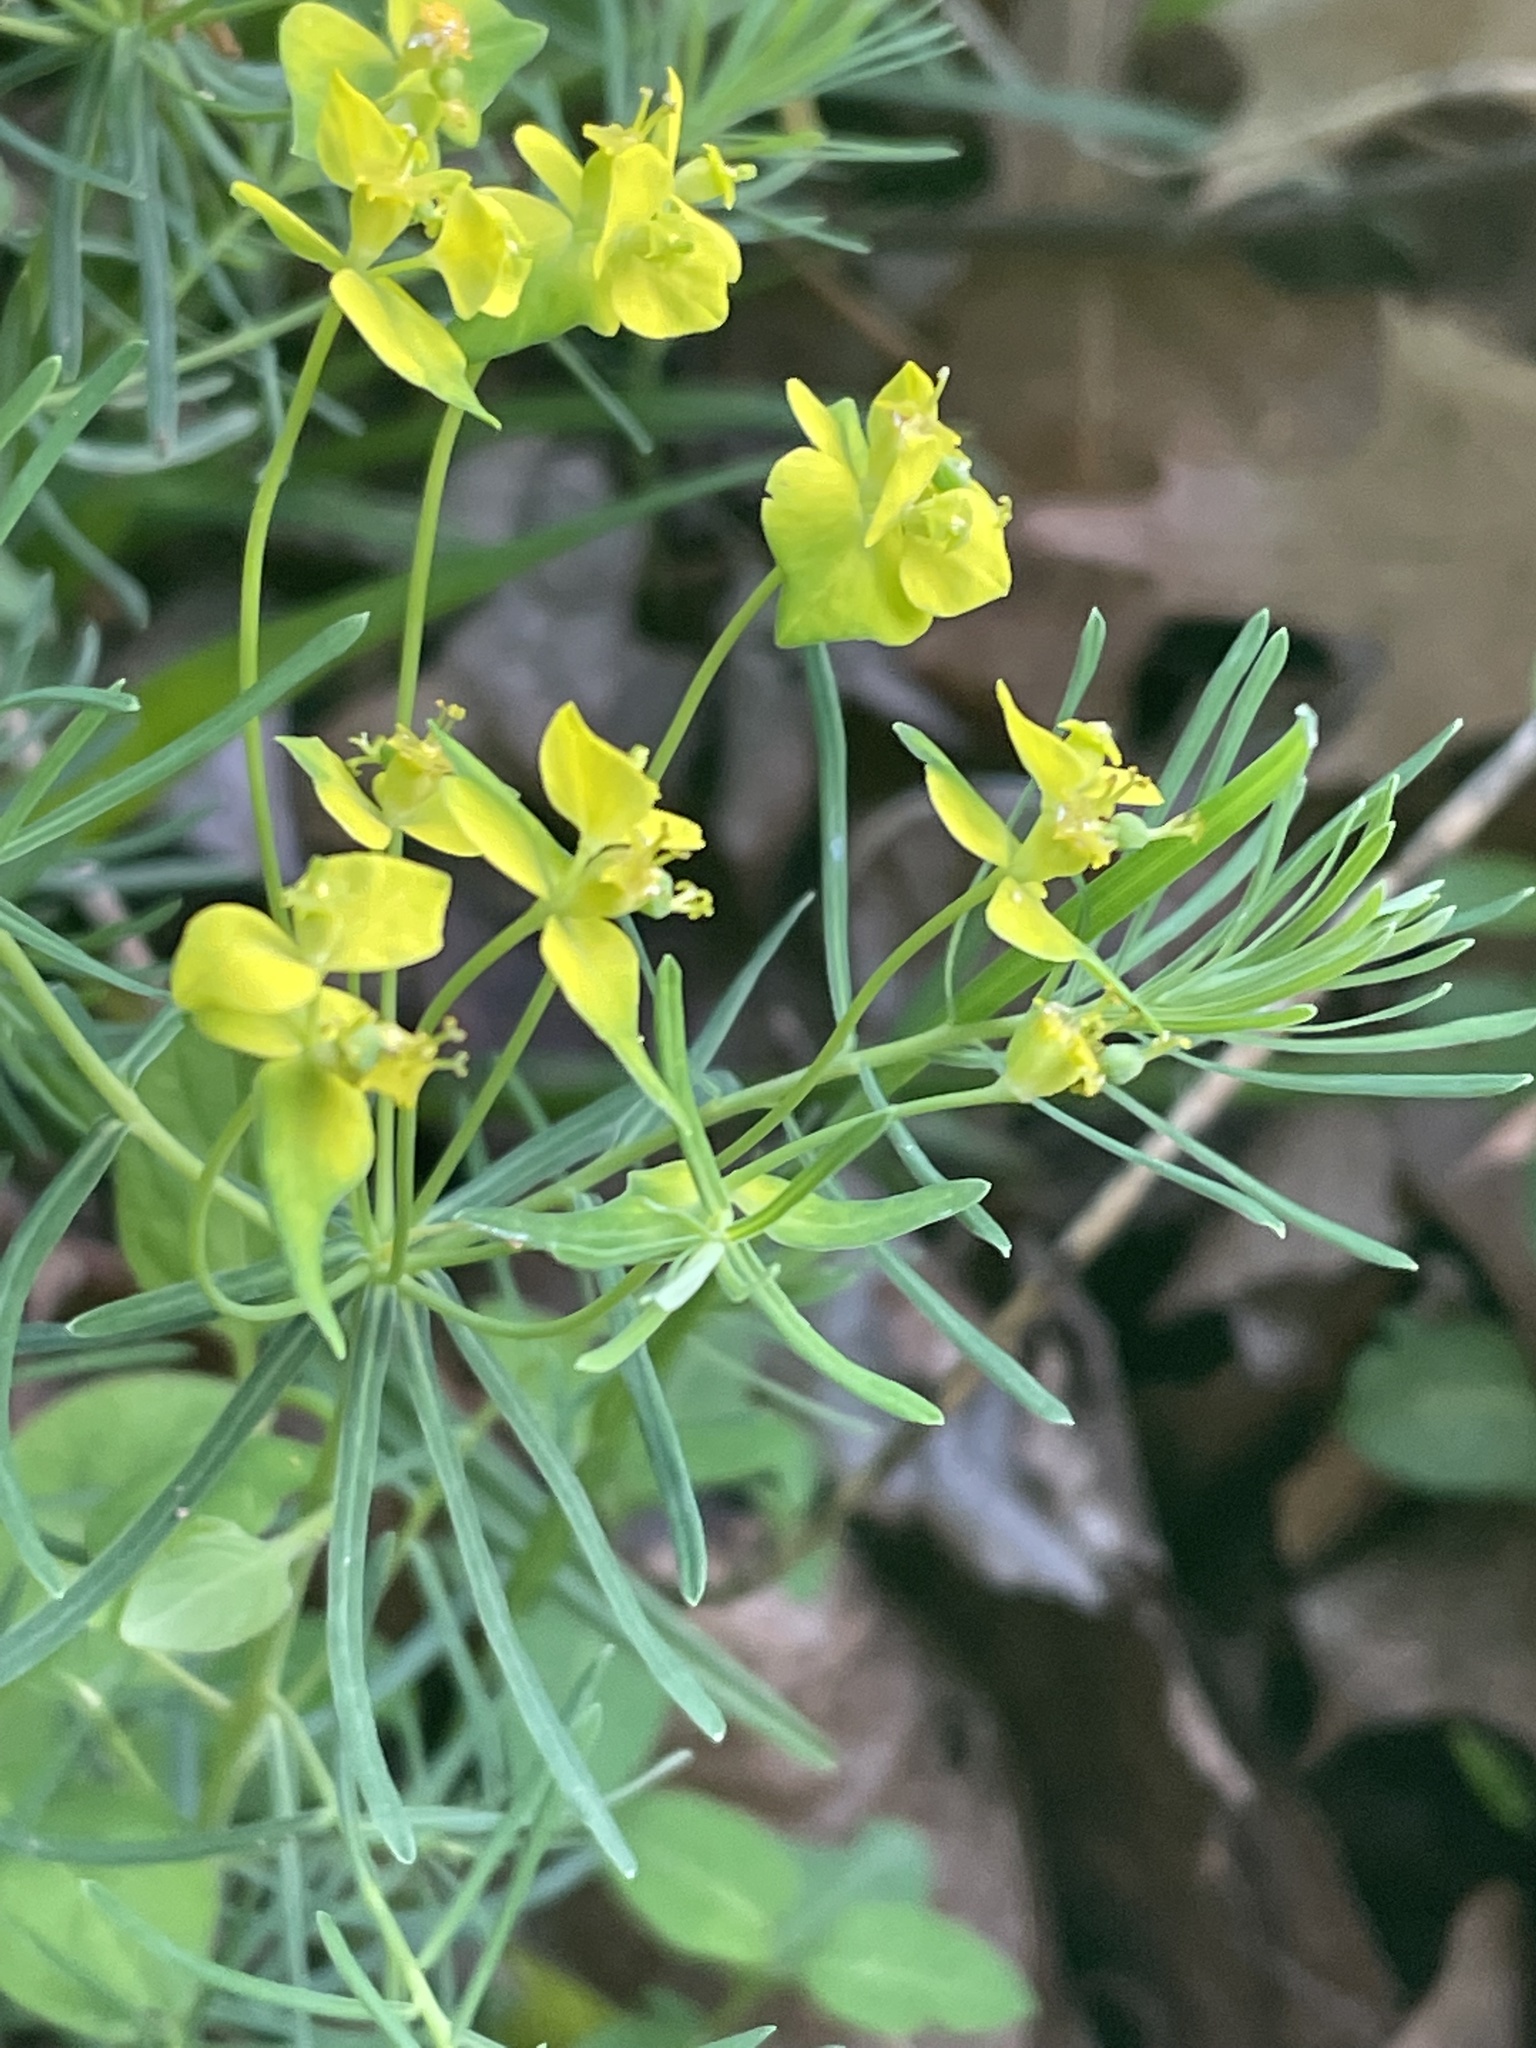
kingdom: Plantae
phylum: Tracheophyta
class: Magnoliopsida
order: Malpighiales
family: Euphorbiaceae
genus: Euphorbia
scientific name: Euphorbia cyparissias
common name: Cypress spurge
